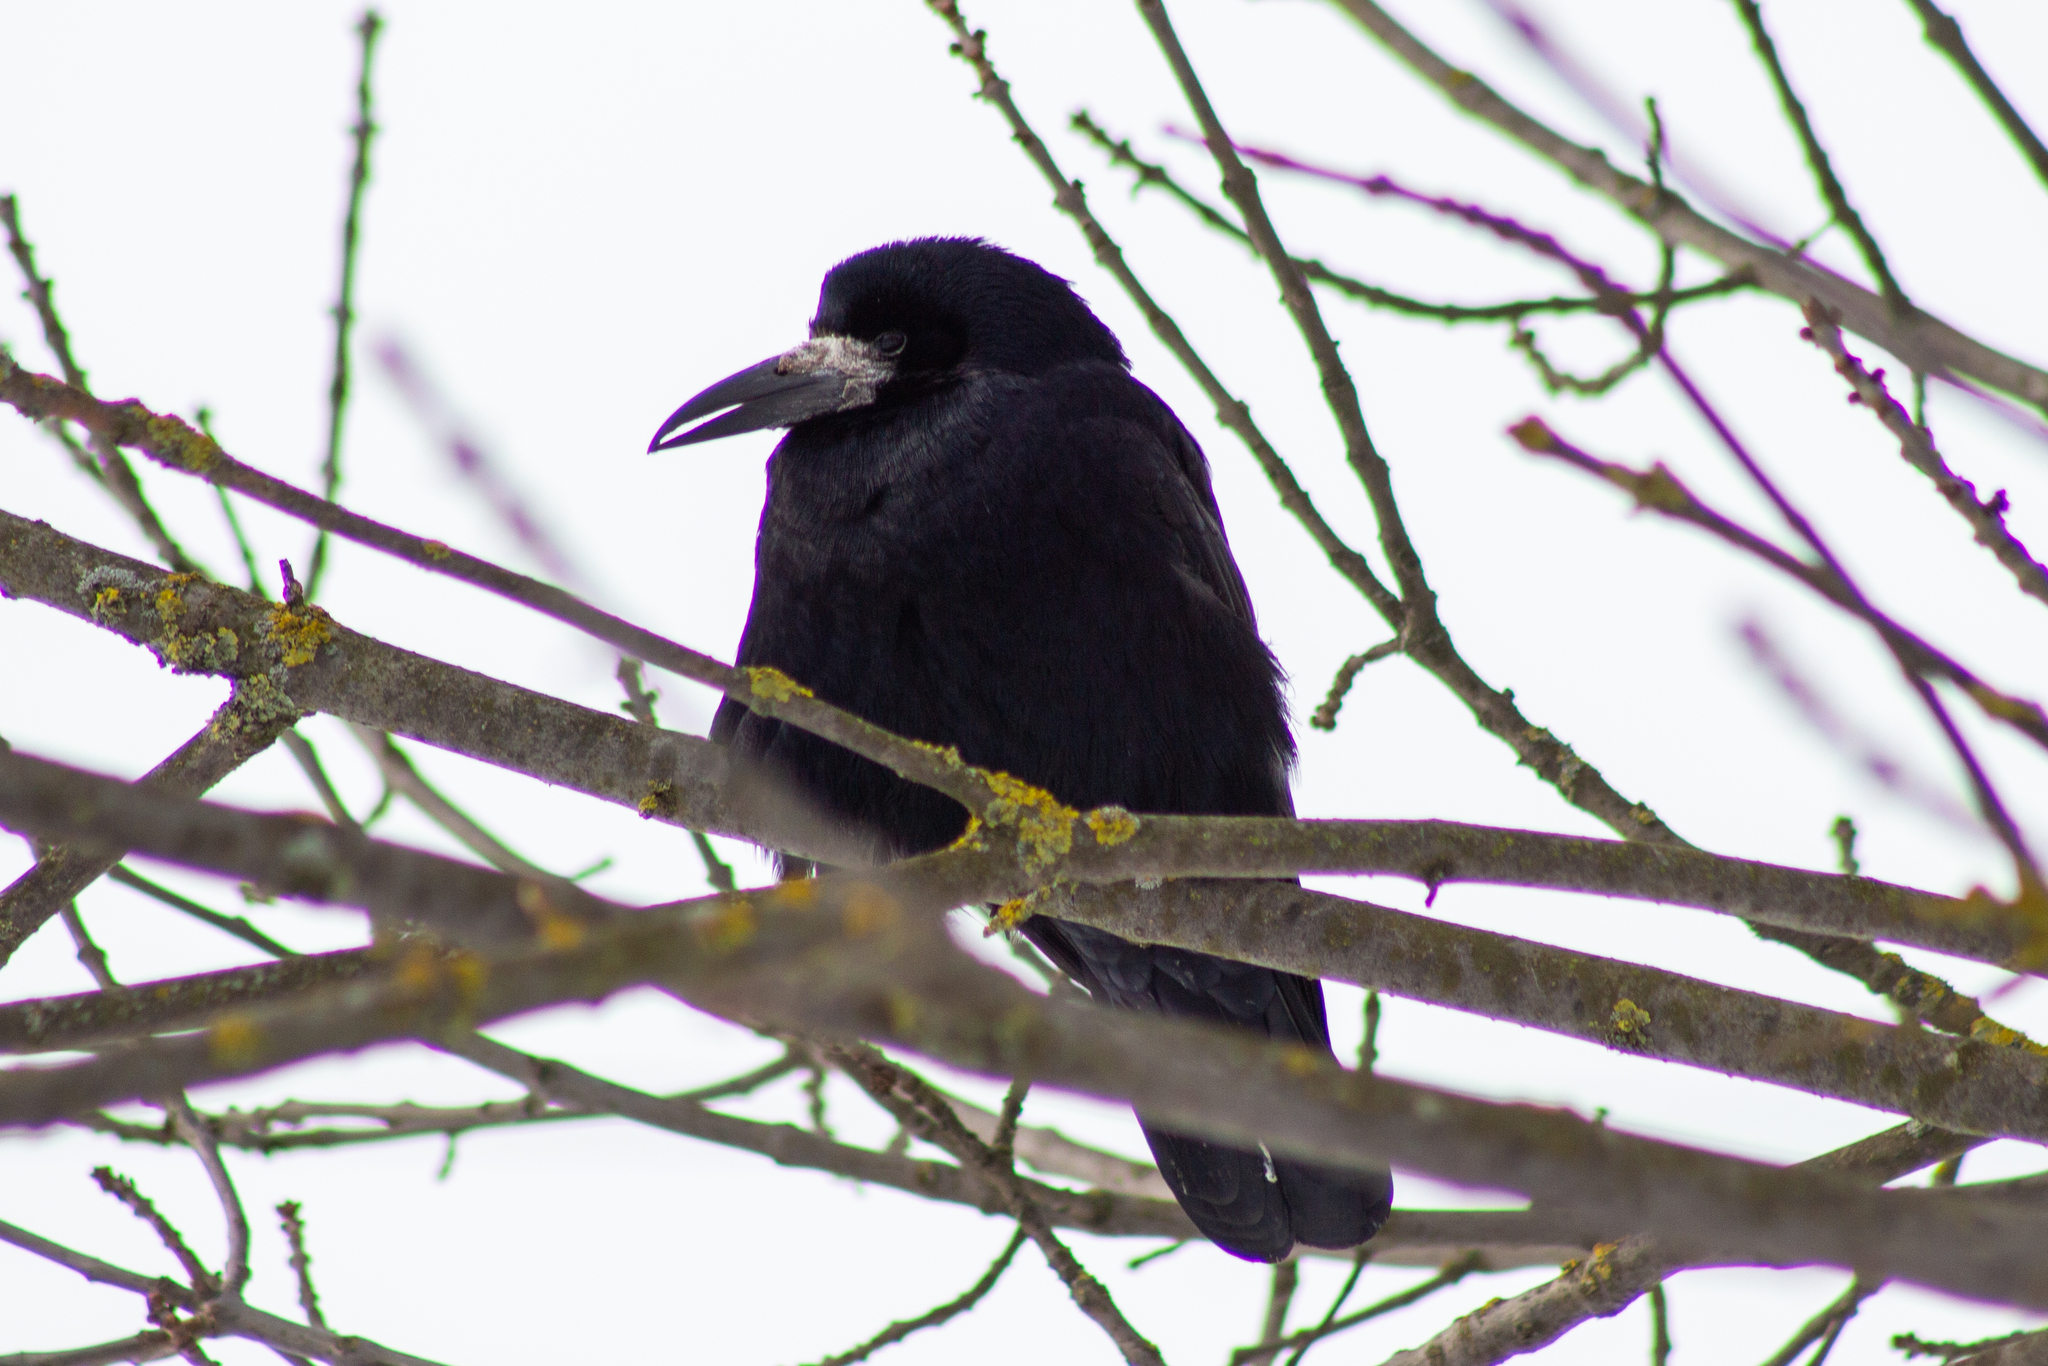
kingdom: Animalia
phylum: Chordata
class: Aves
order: Passeriformes
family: Corvidae
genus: Corvus
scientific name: Corvus frugilegus
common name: Rook
